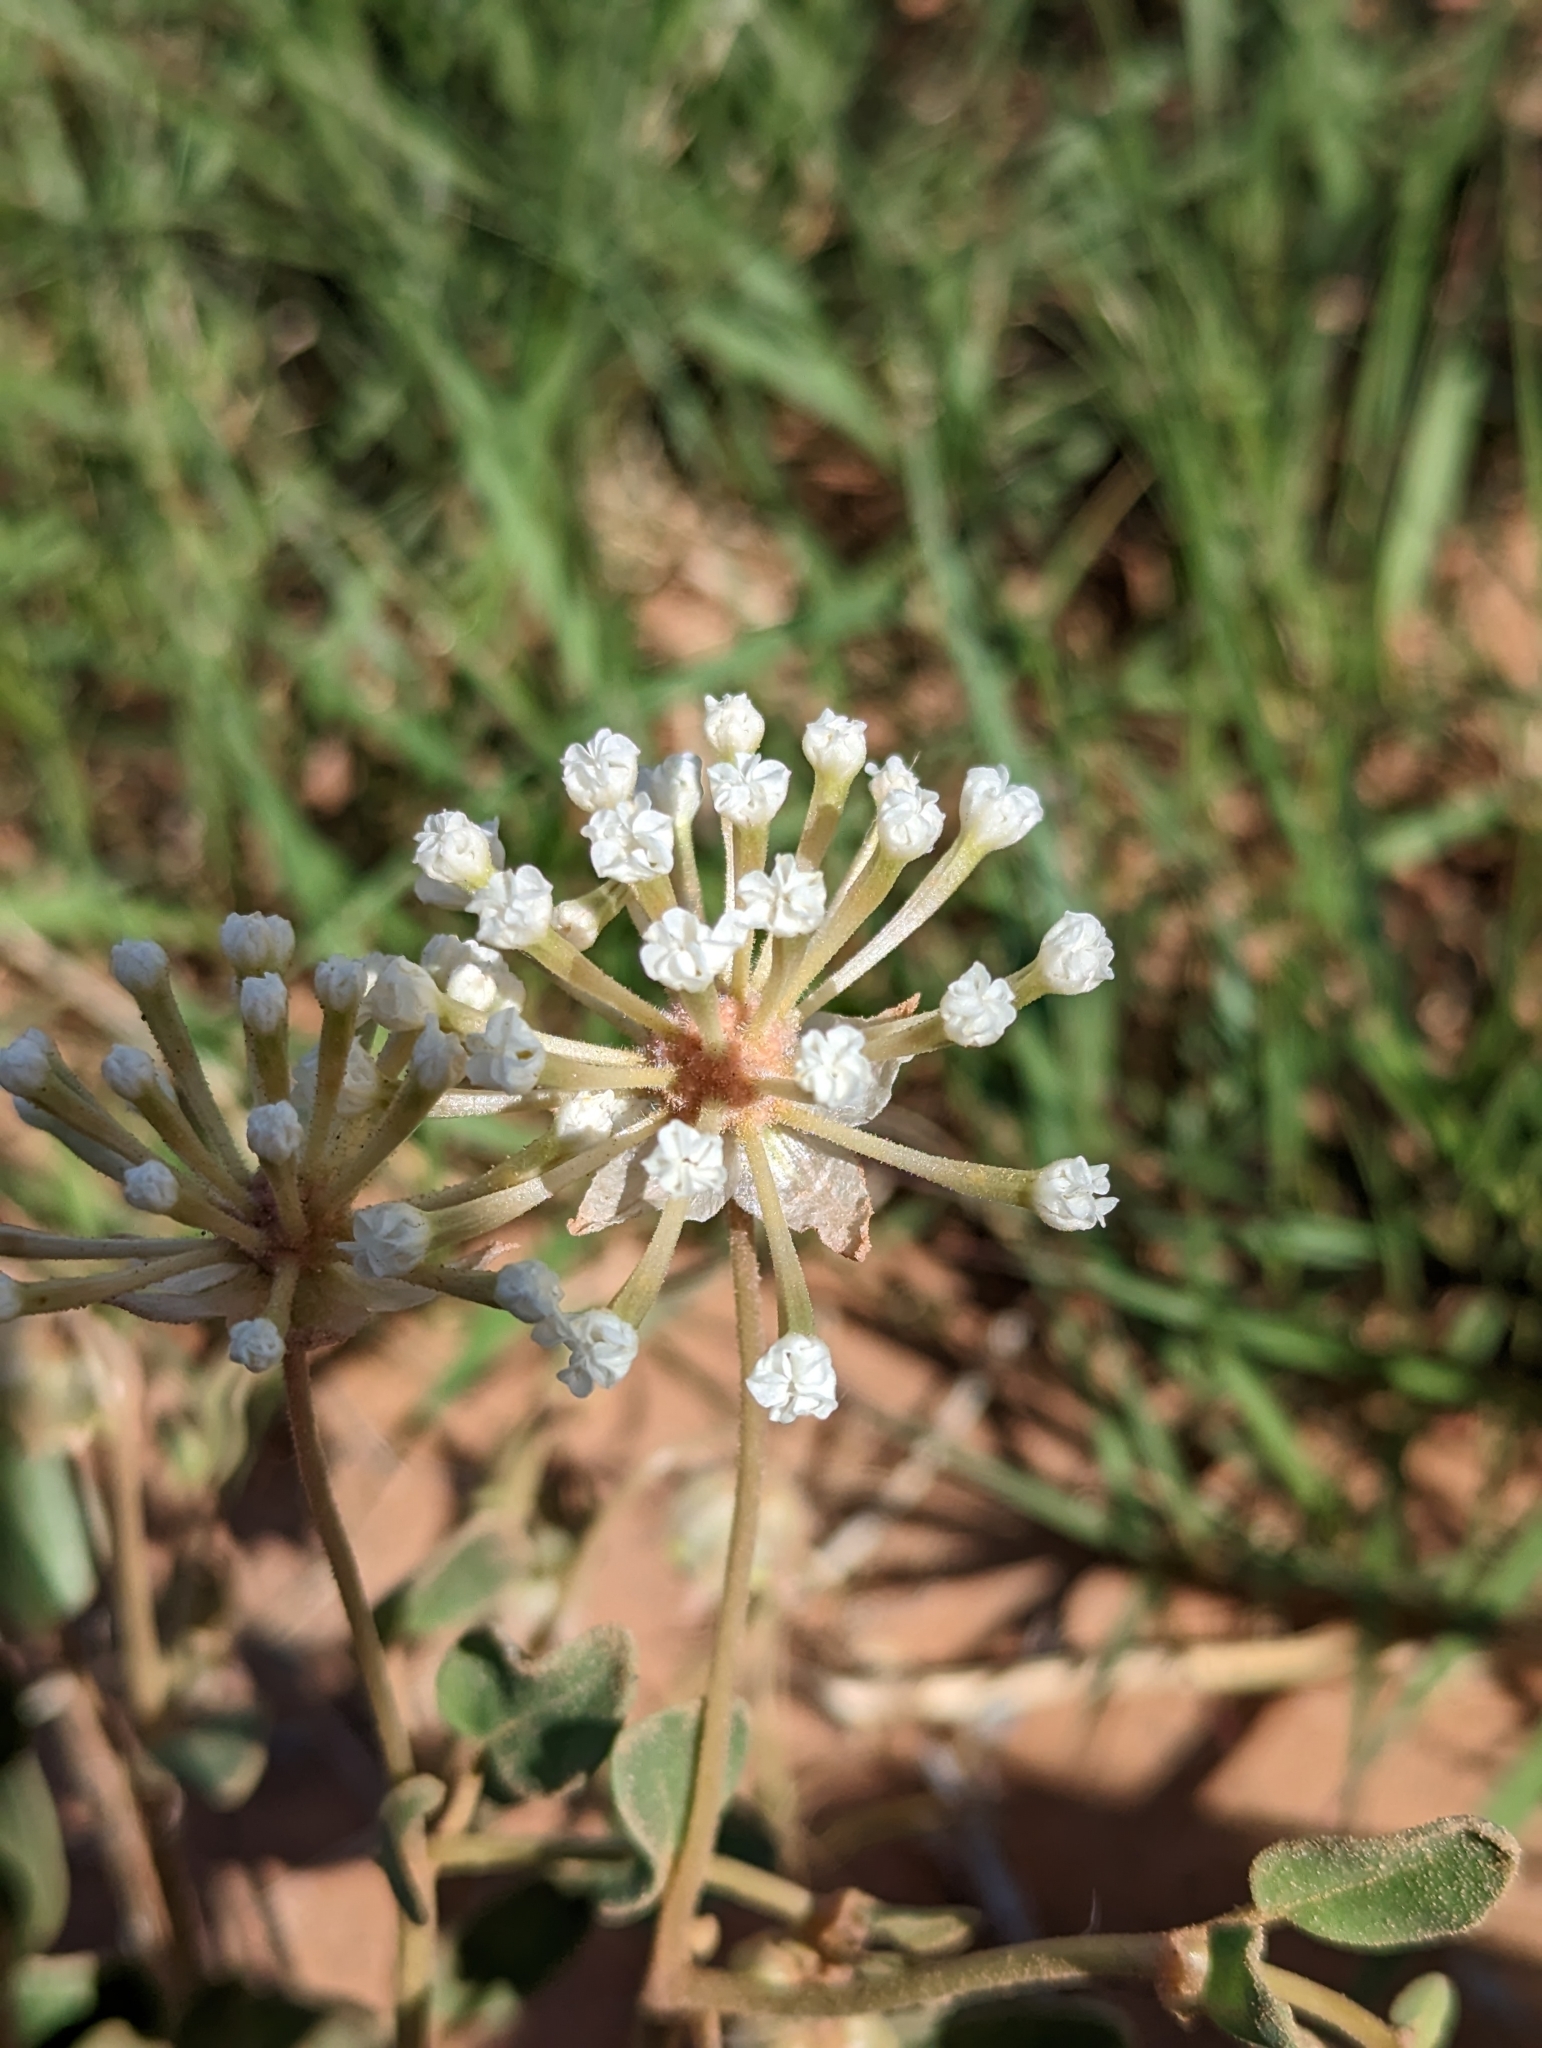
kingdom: Plantae
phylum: Tracheophyta
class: Magnoliopsida
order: Caryophyllales
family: Nyctaginaceae
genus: Abronia
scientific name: Abronia elliptica
